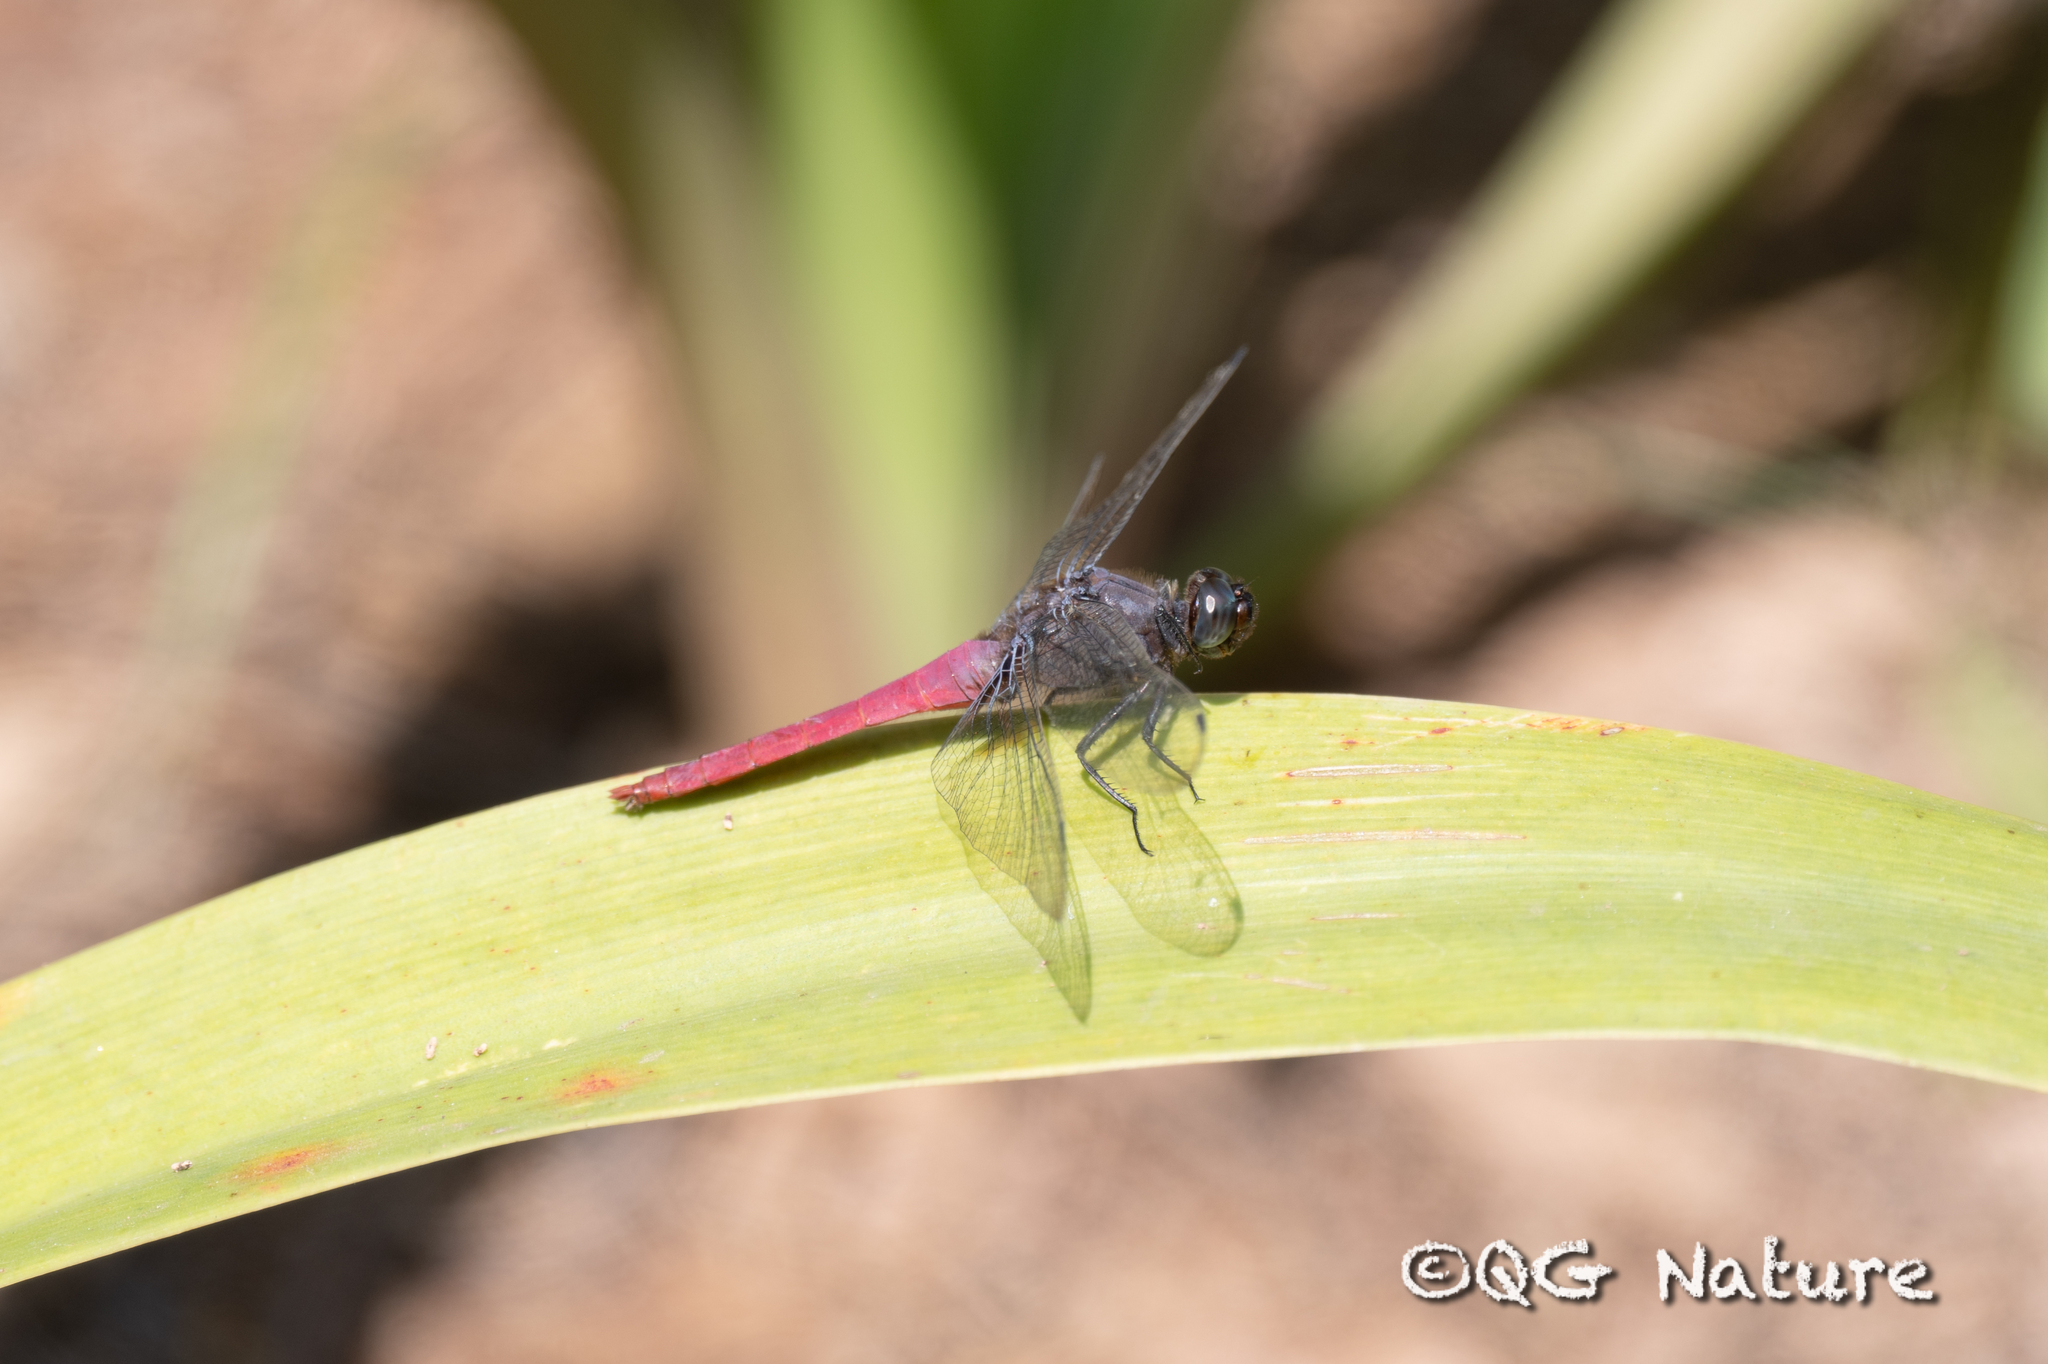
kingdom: Animalia
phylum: Arthropoda
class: Insecta
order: Odonata
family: Libellulidae
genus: Orthetrum
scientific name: Orthetrum pruinosum
